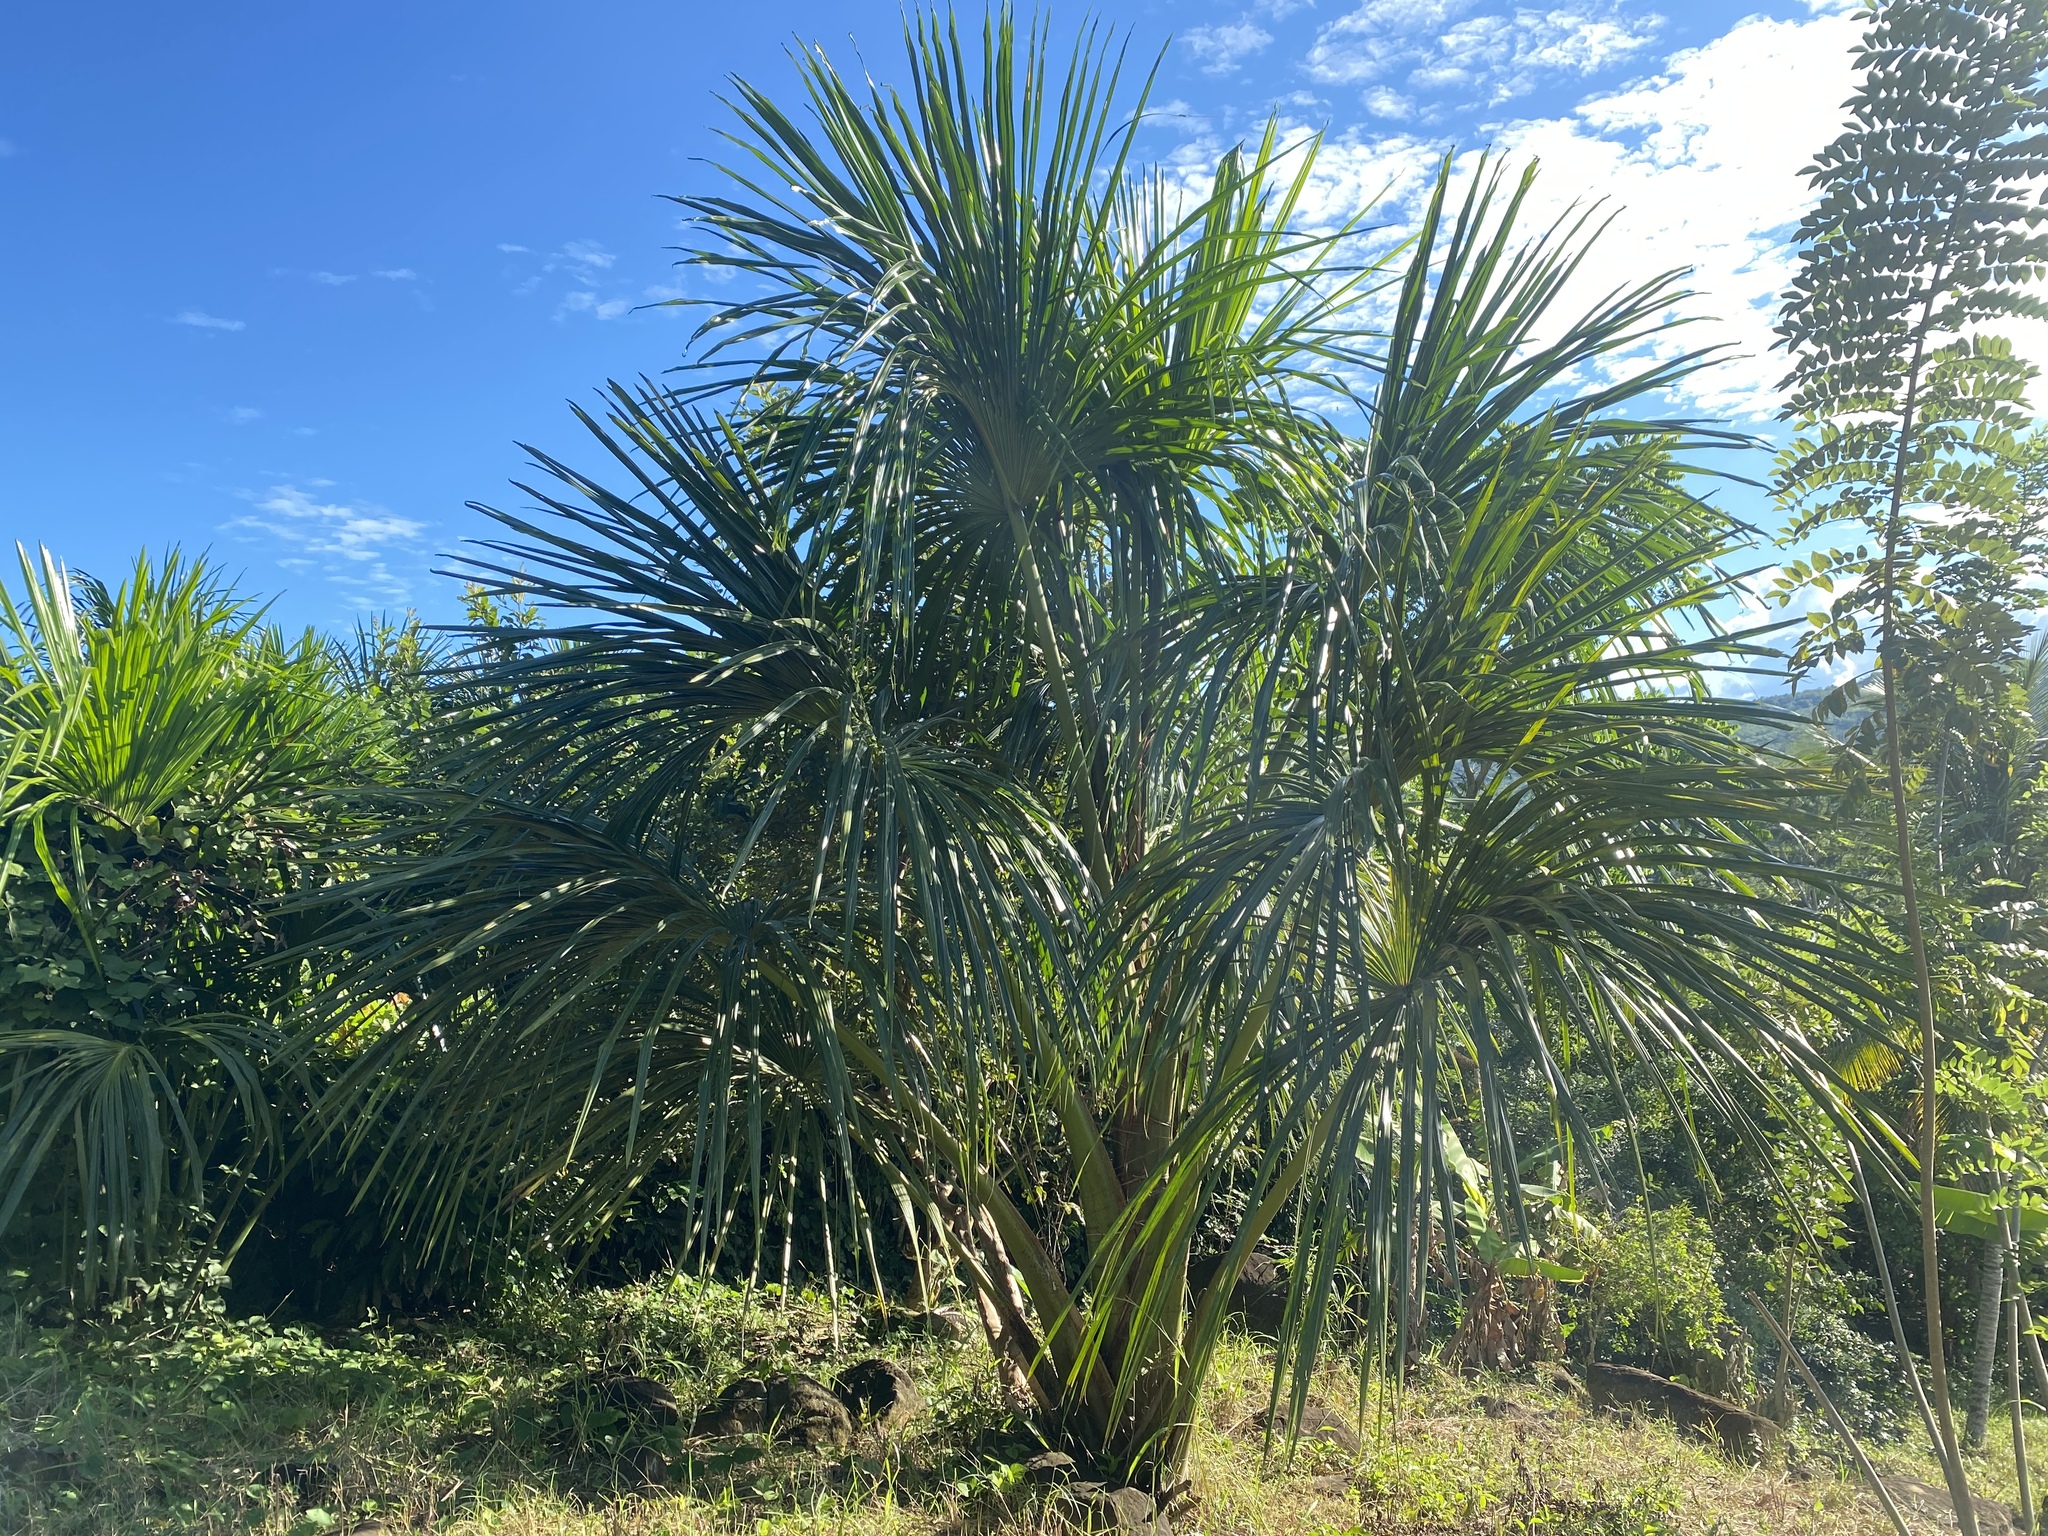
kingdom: Plantae
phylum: Tracheophyta
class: Liliopsida
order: Arecales
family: Arecaceae
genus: Mauritia
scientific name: Mauritia flexuosa
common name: Tree-of-life
